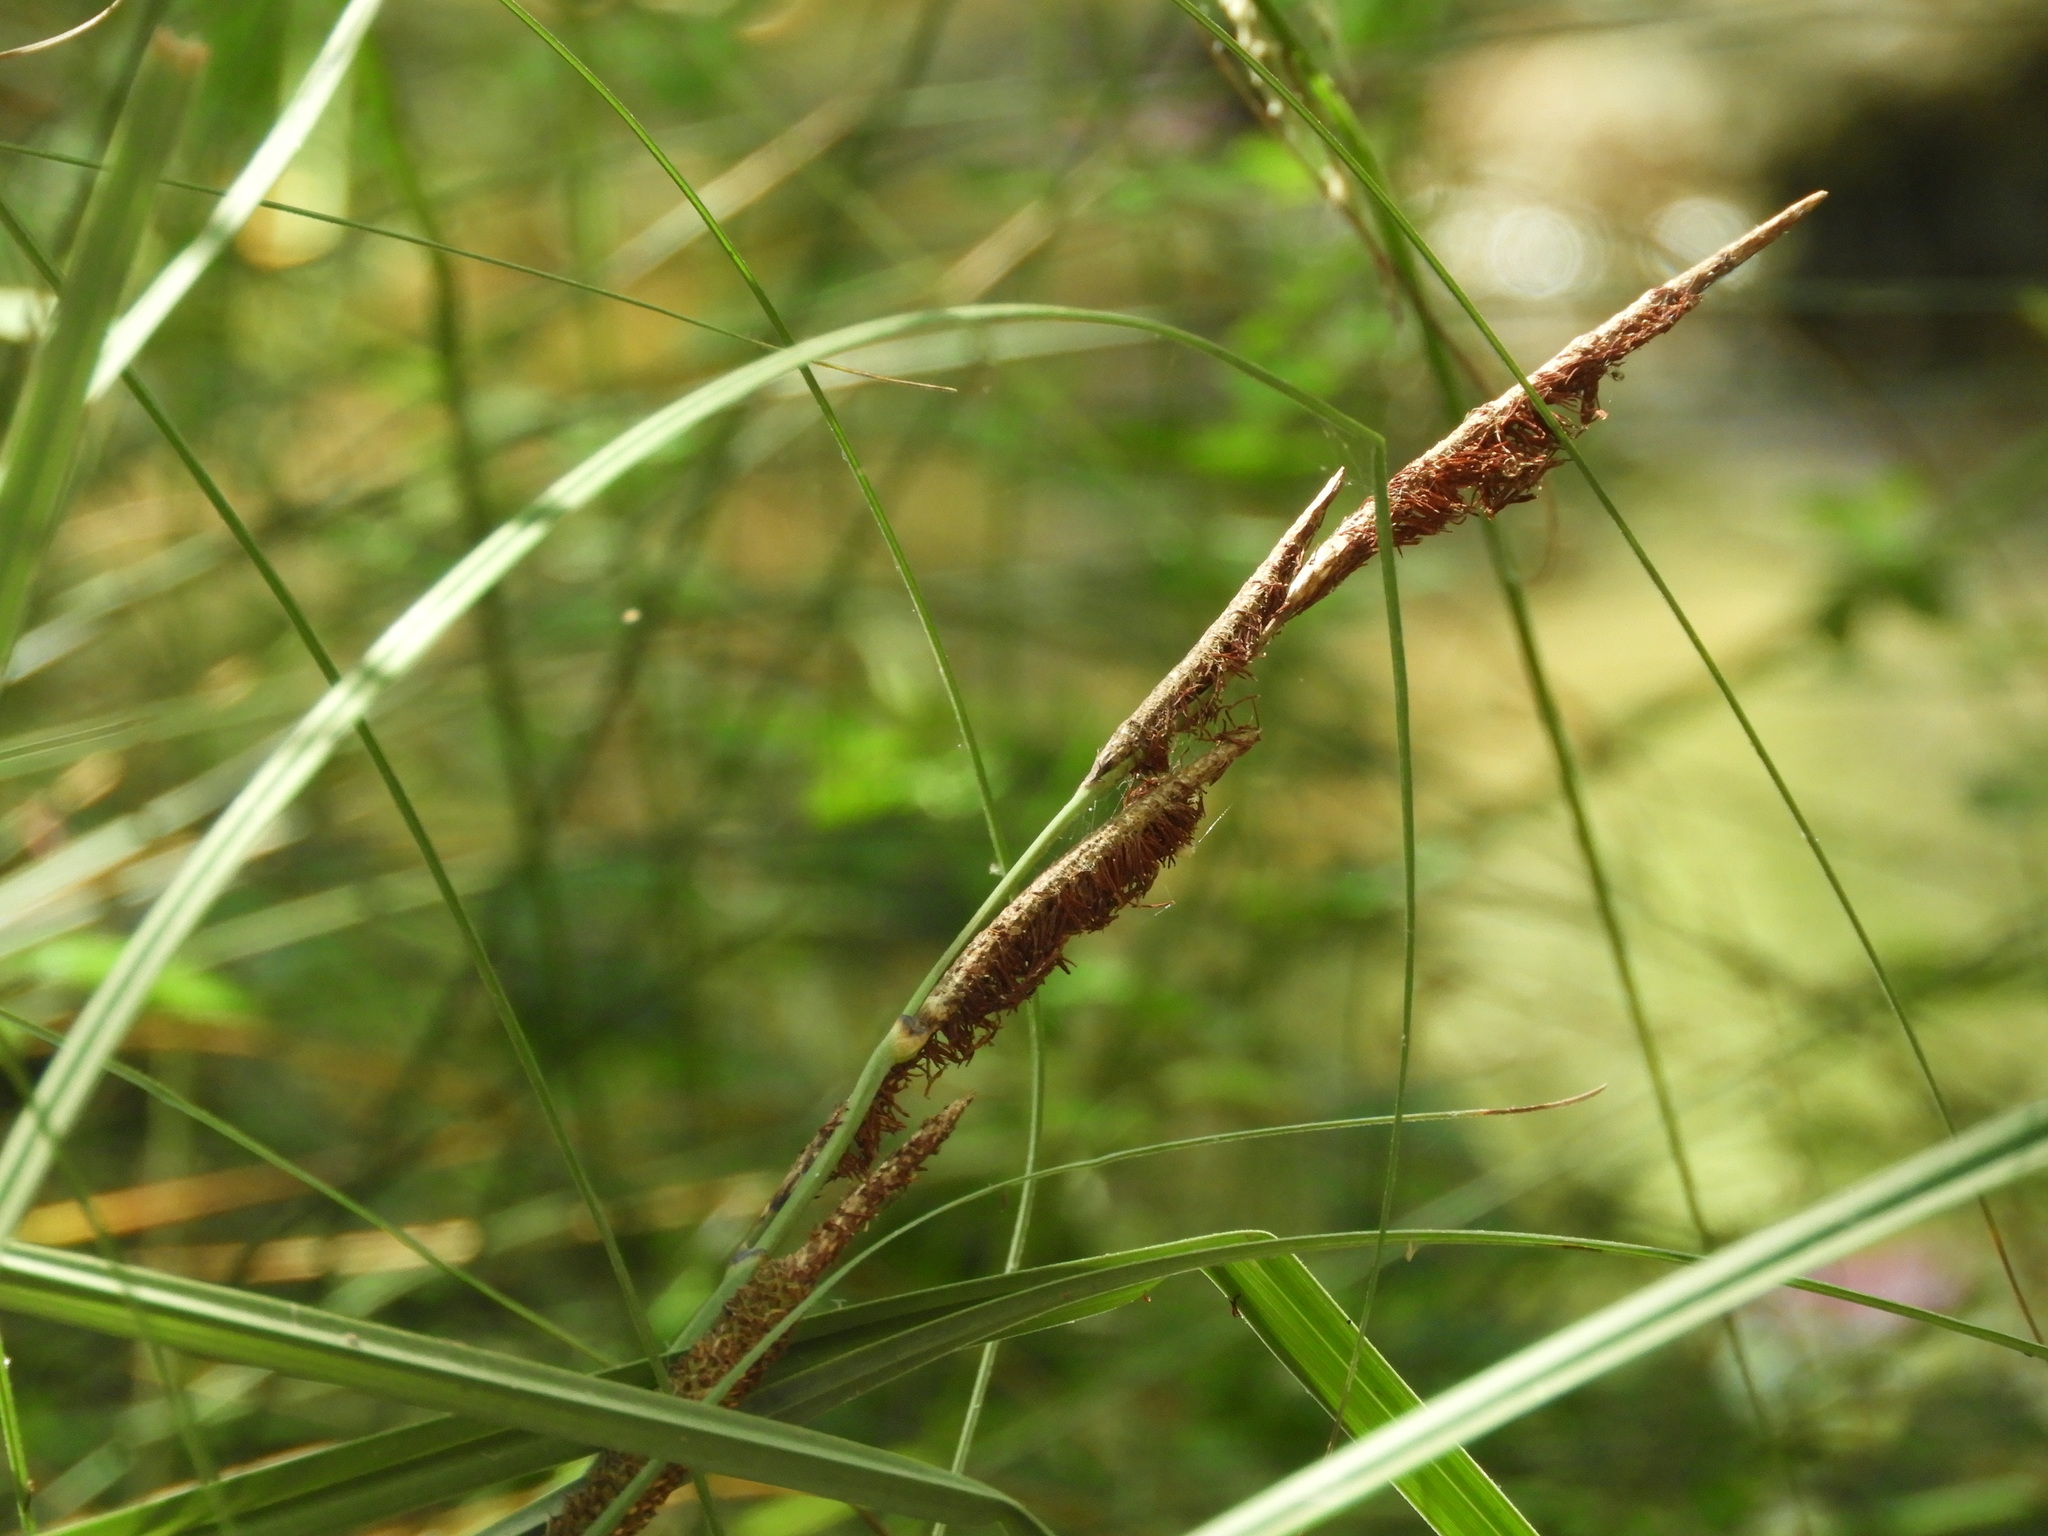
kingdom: Plantae
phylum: Tracheophyta
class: Liliopsida
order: Poales
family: Cyperaceae
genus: Carex
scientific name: Carex hispida
